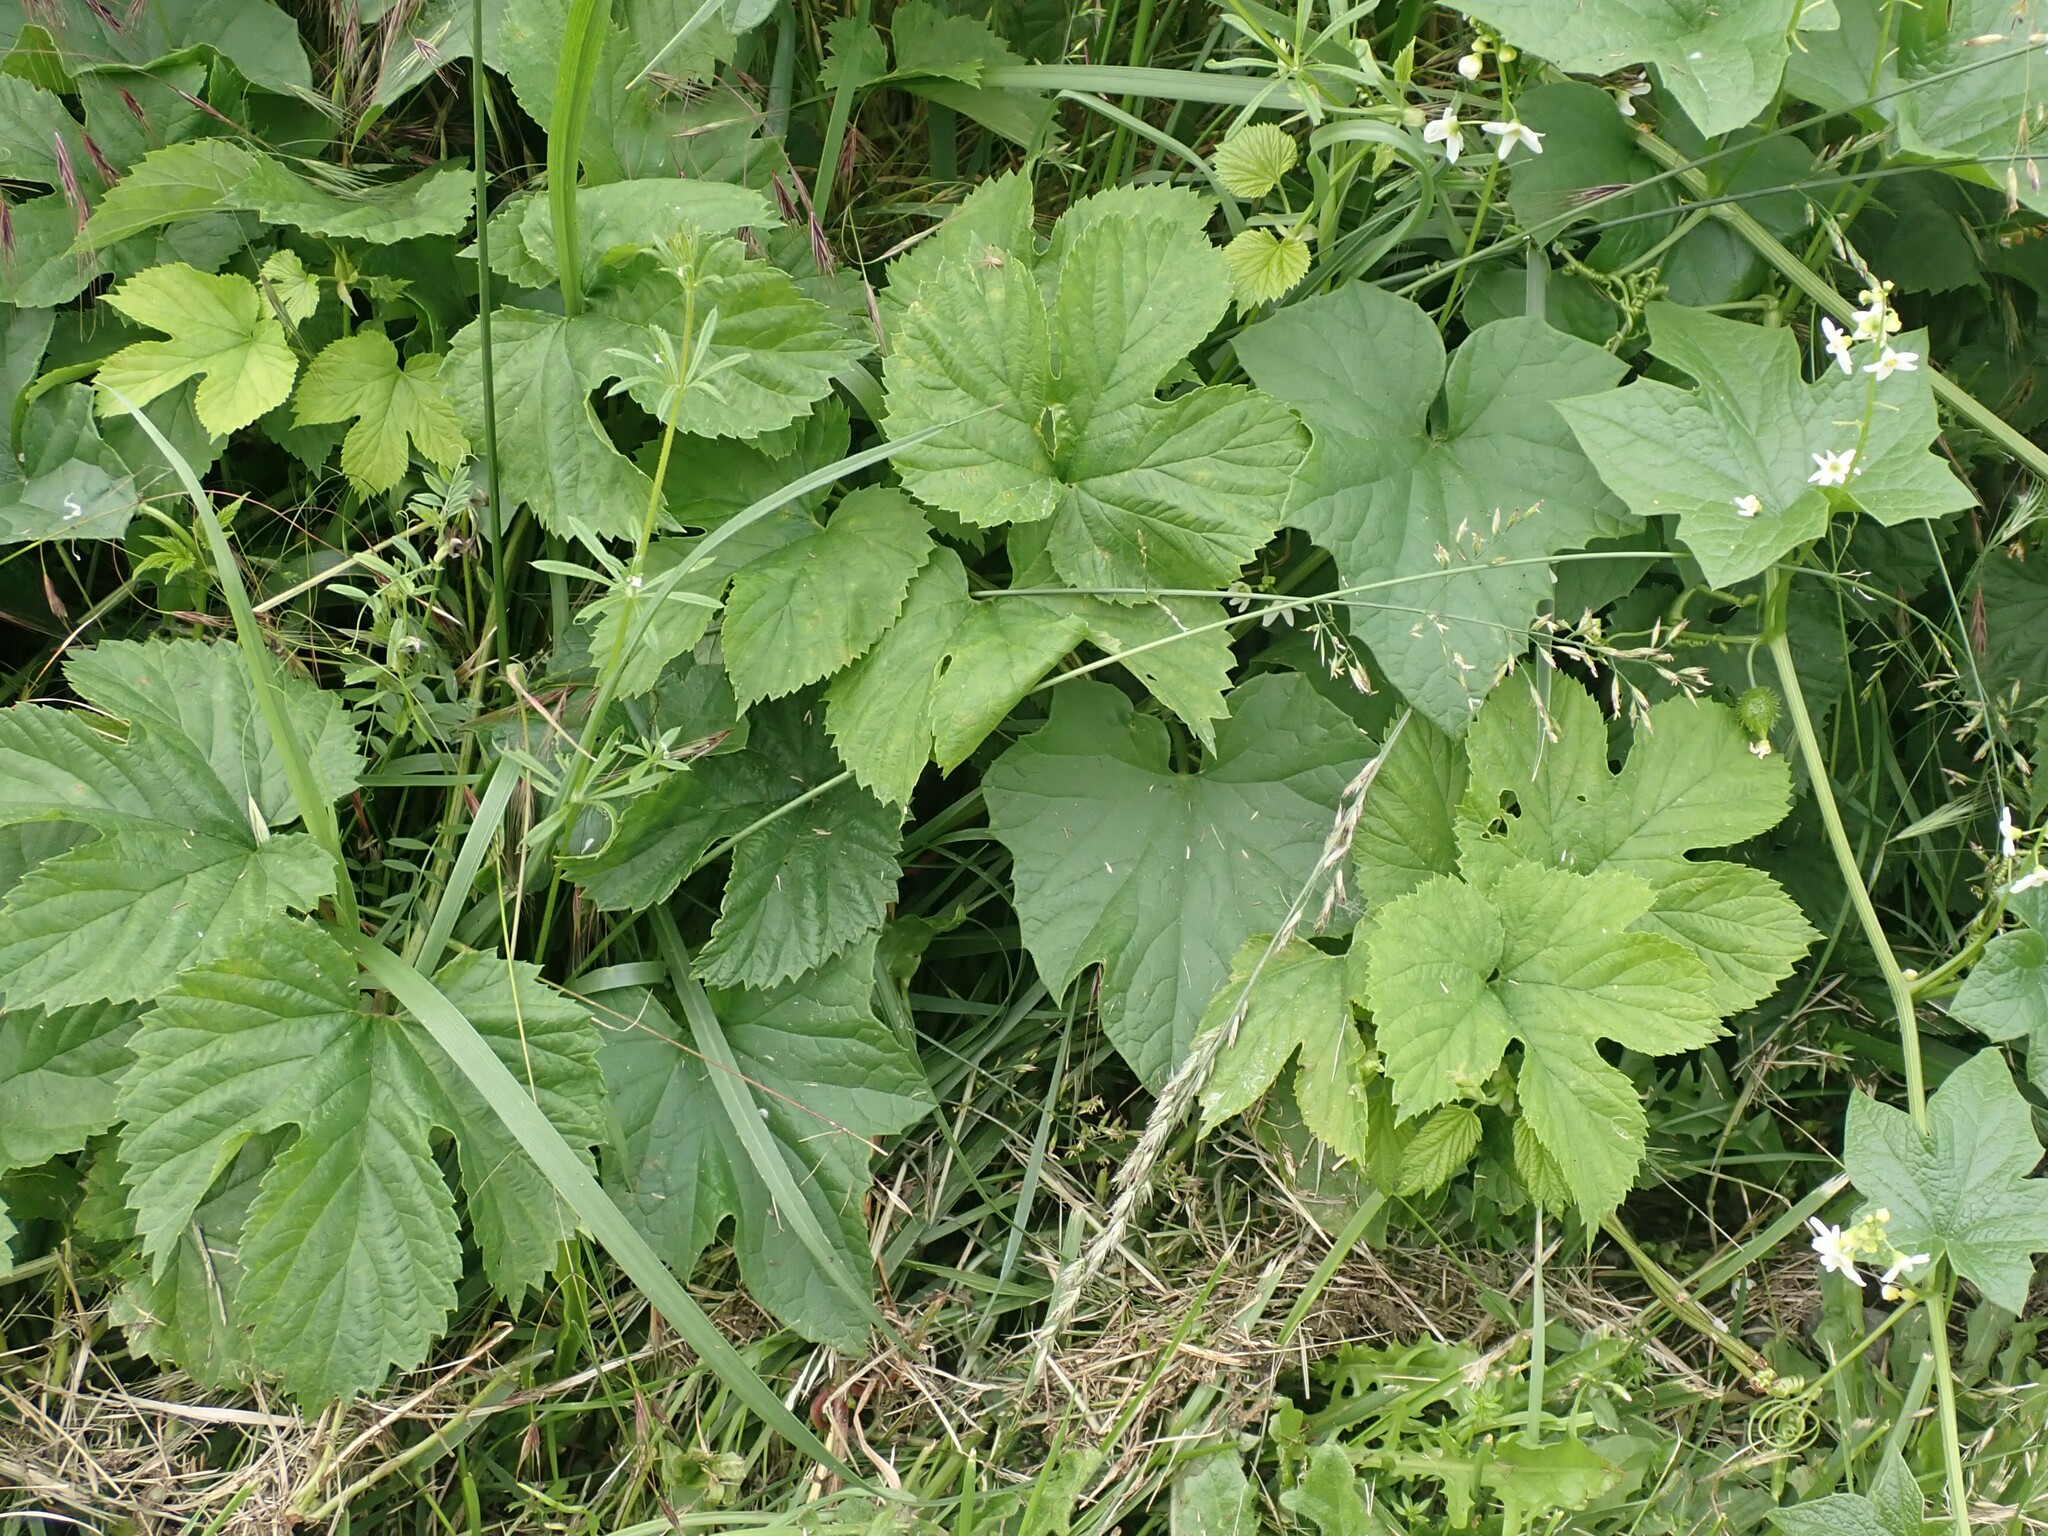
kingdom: Plantae
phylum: Tracheophyta
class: Magnoliopsida
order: Rosales
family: Cannabaceae
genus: Humulus
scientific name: Humulus lupulus
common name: Hop
